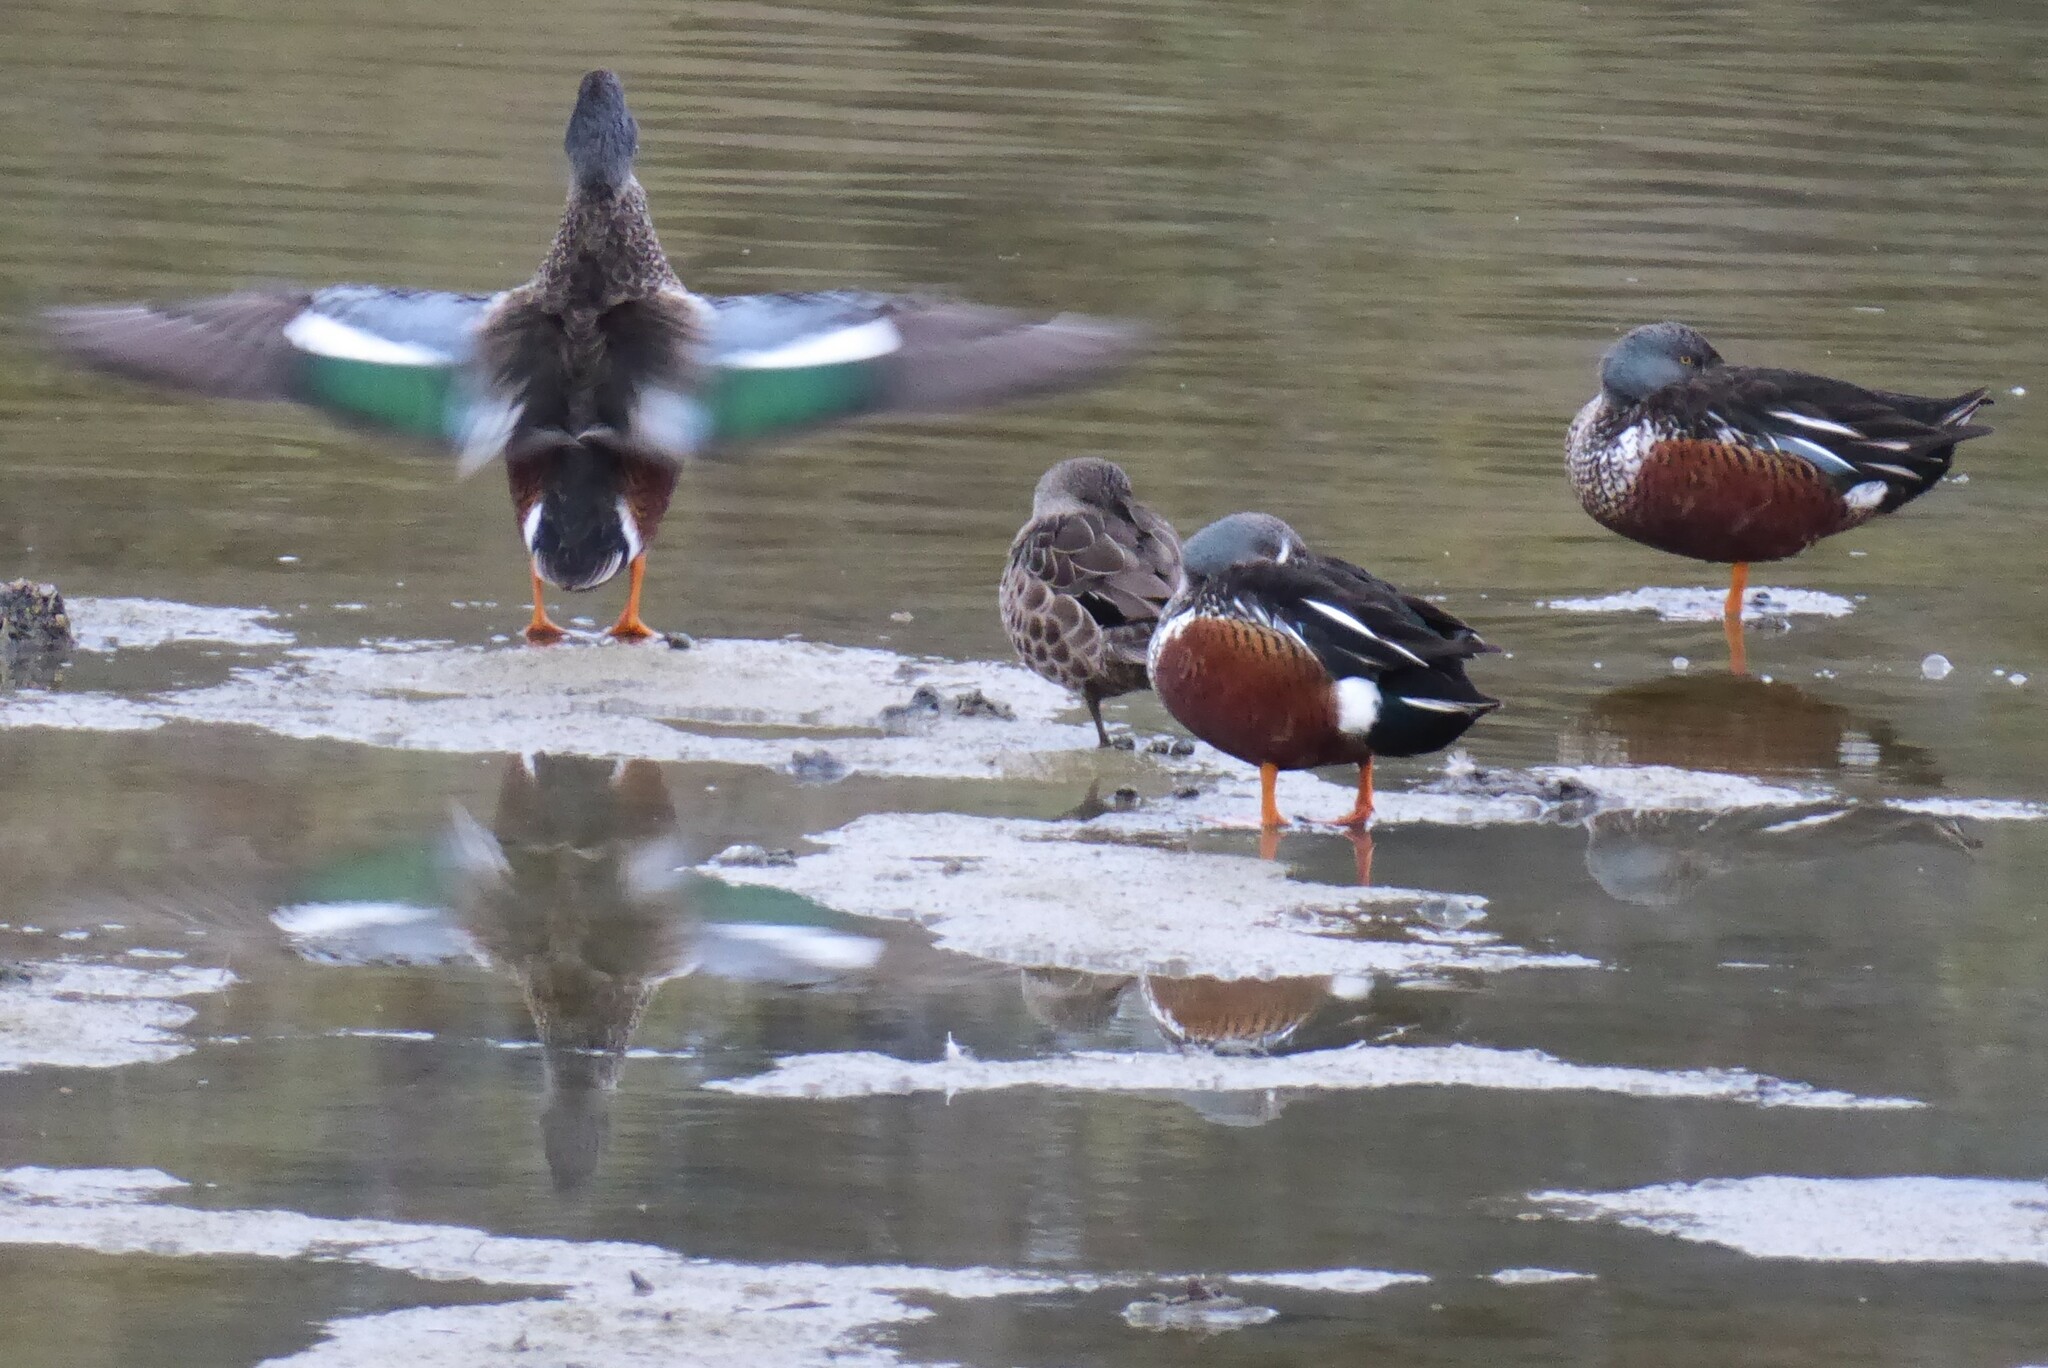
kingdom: Animalia
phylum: Chordata
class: Aves
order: Anseriformes
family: Anatidae
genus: Spatula
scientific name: Spatula rhynchotis
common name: Australian shoveler
